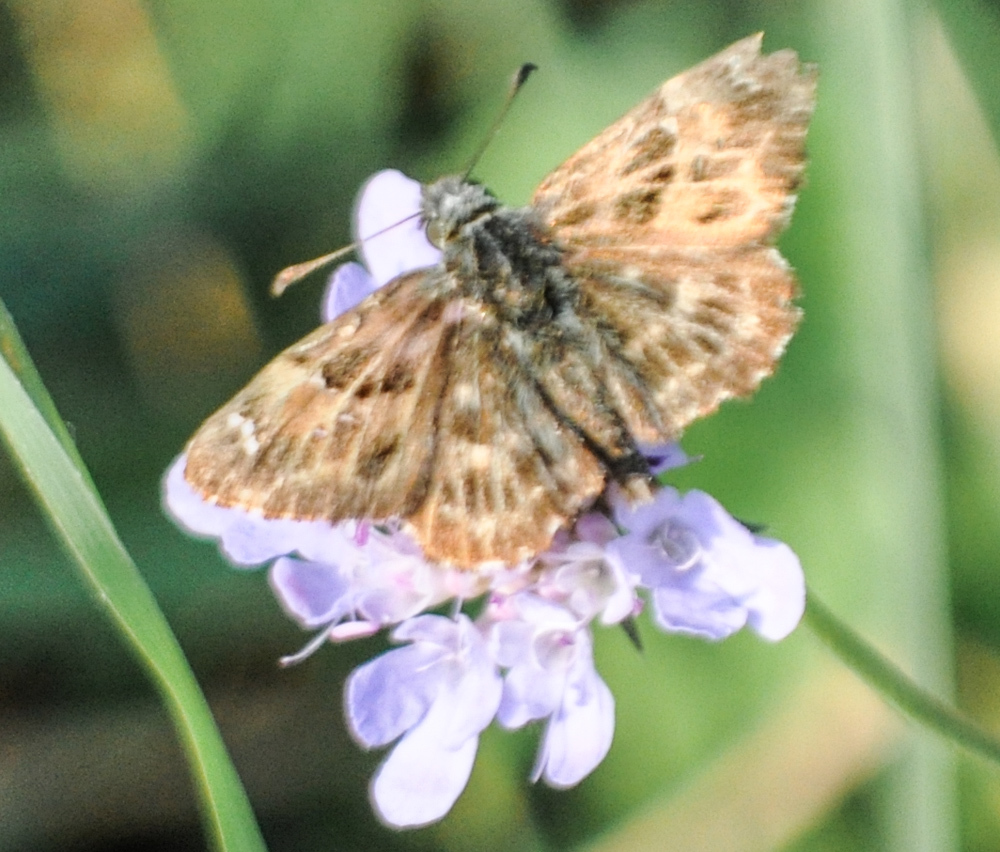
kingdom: Animalia
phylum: Arthropoda
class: Insecta
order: Lepidoptera
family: Hesperiidae
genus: Carcharodus
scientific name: Carcharodus alceae
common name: Mallow skipper
